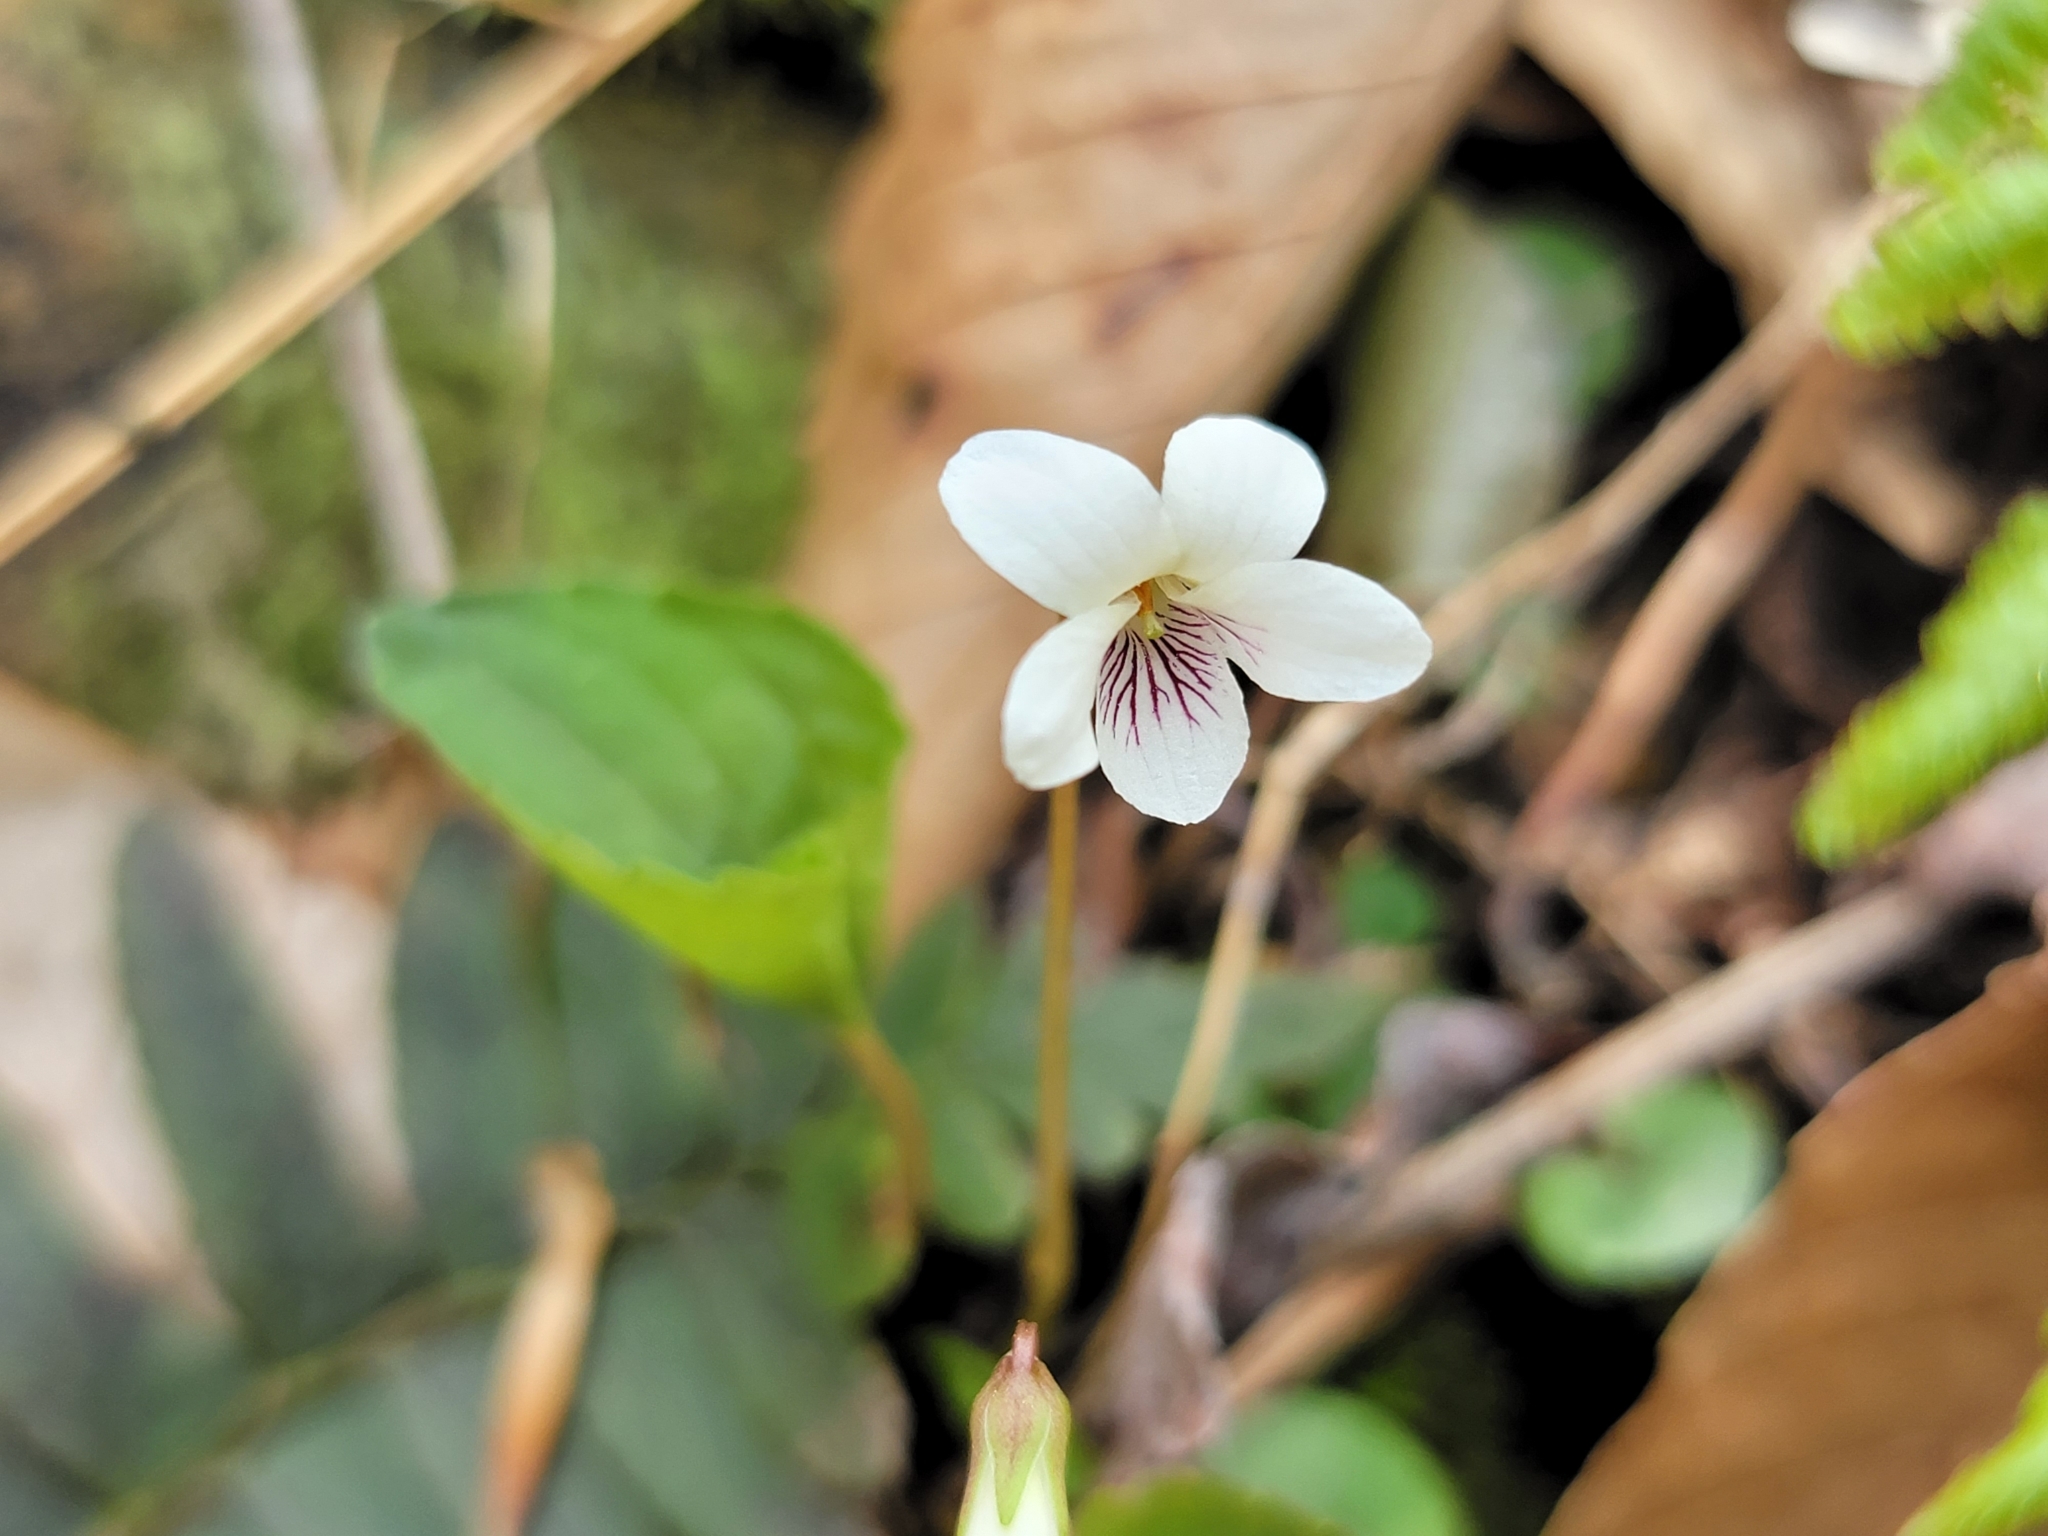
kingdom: Plantae
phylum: Tracheophyta
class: Magnoliopsida
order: Malpighiales
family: Violaceae
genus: Viola
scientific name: Viola blanda
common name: Sweet white violet
